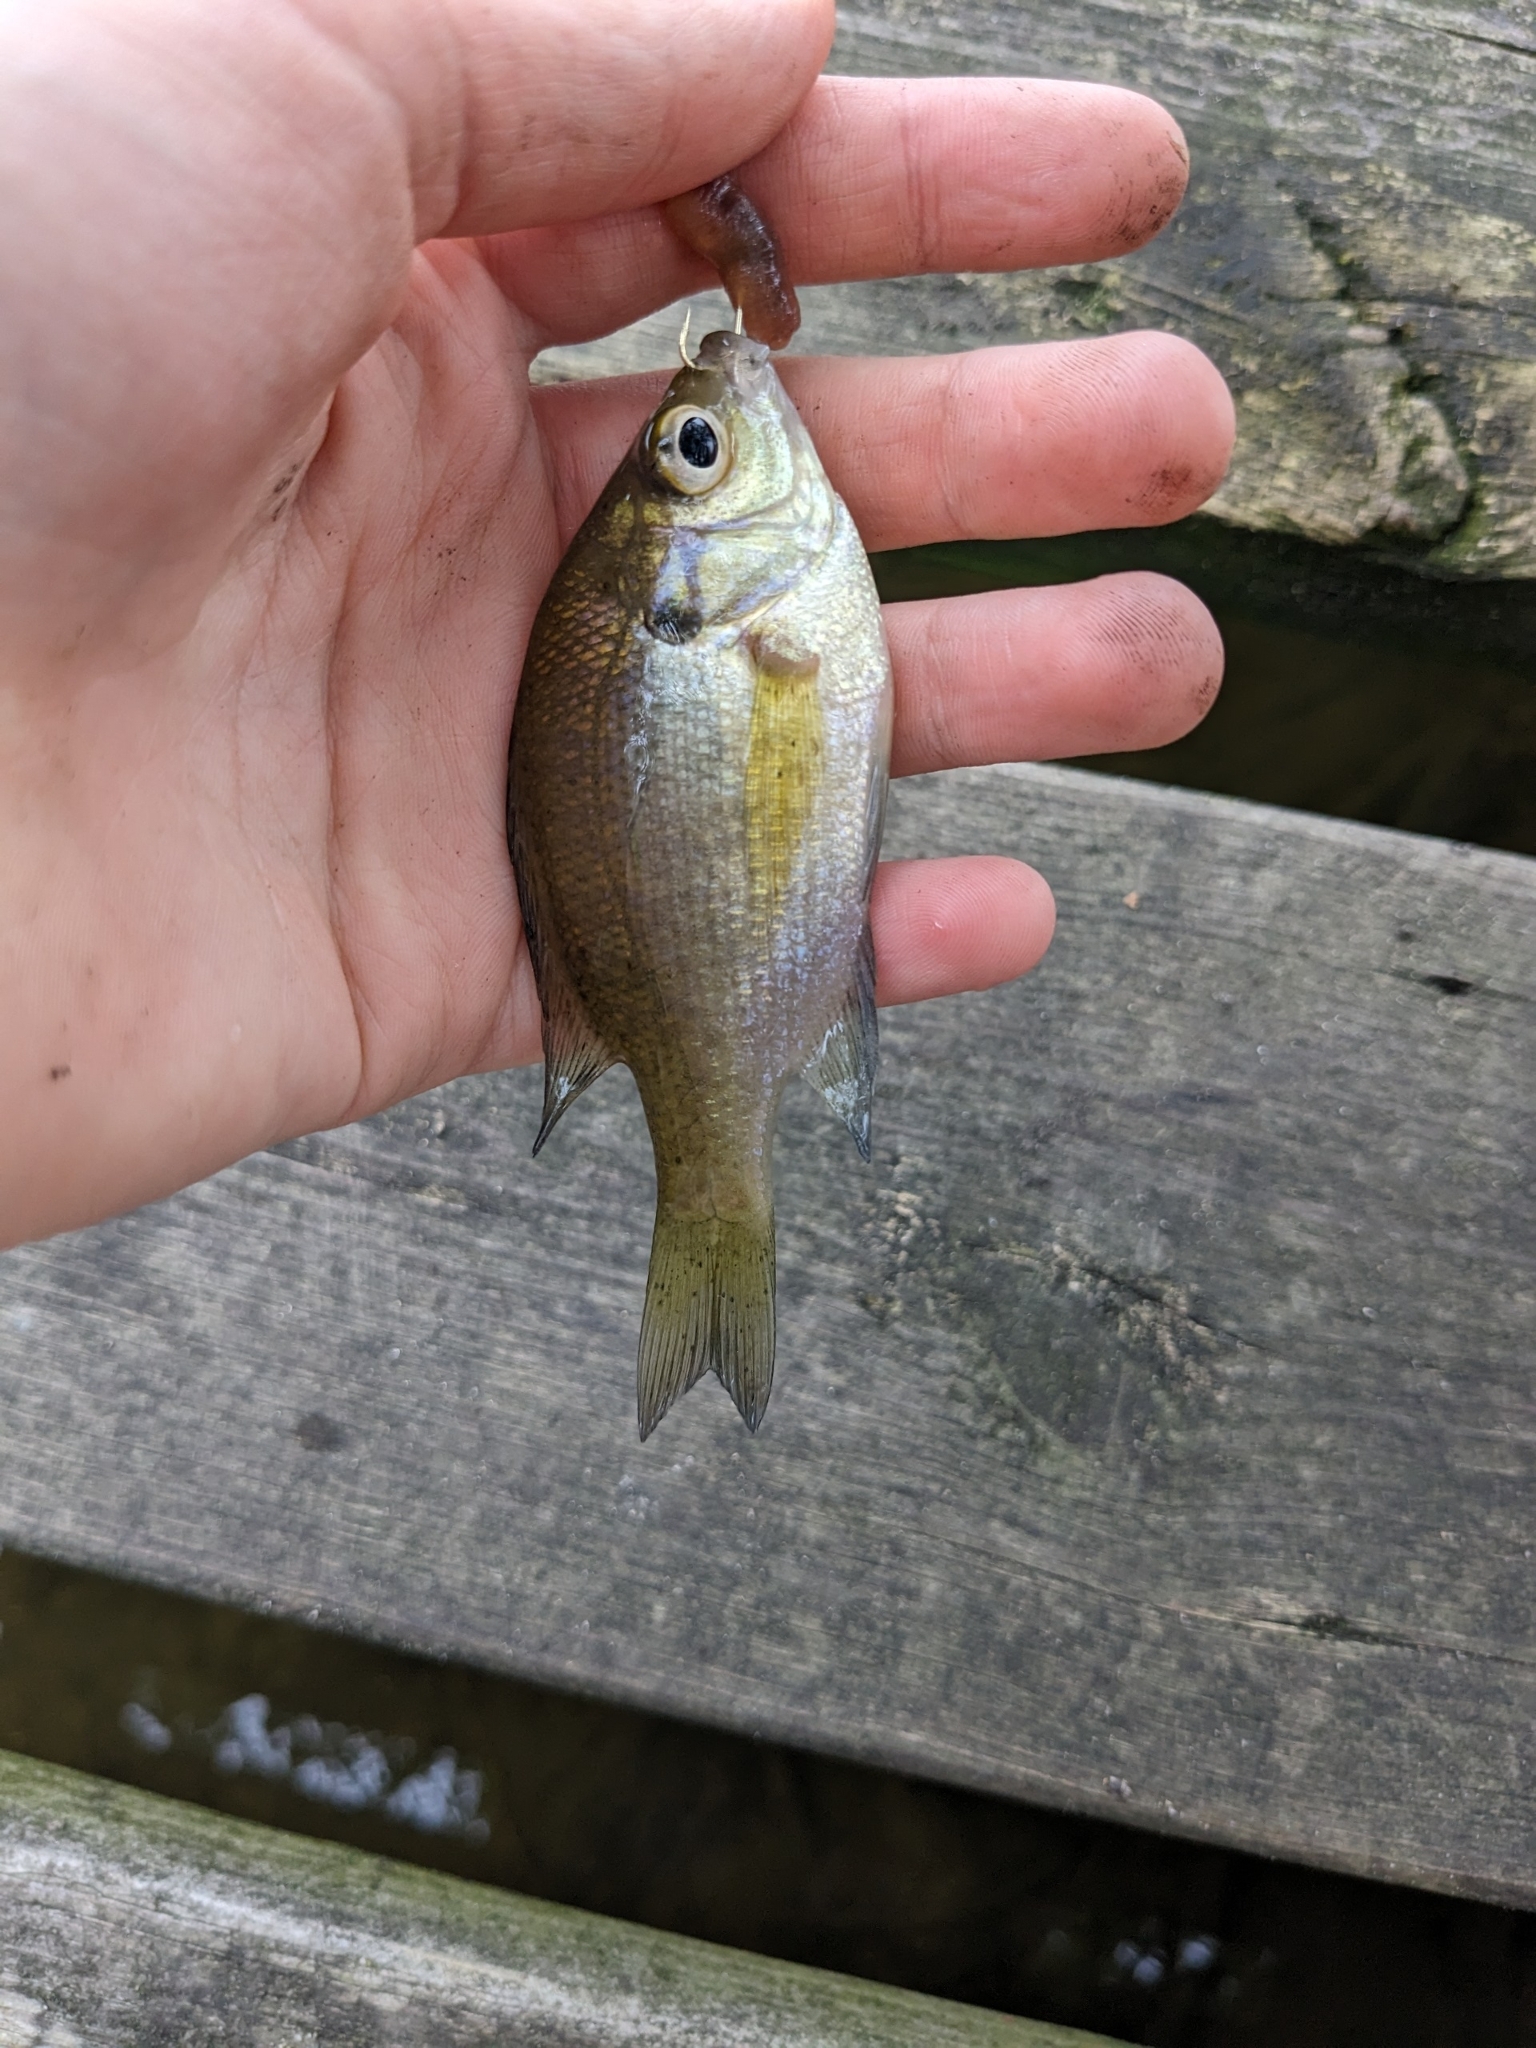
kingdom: Animalia
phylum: Chordata
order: Perciformes
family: Centrarchidae
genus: Lepomis
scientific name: Lepomis macrochirus
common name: Bluegill
